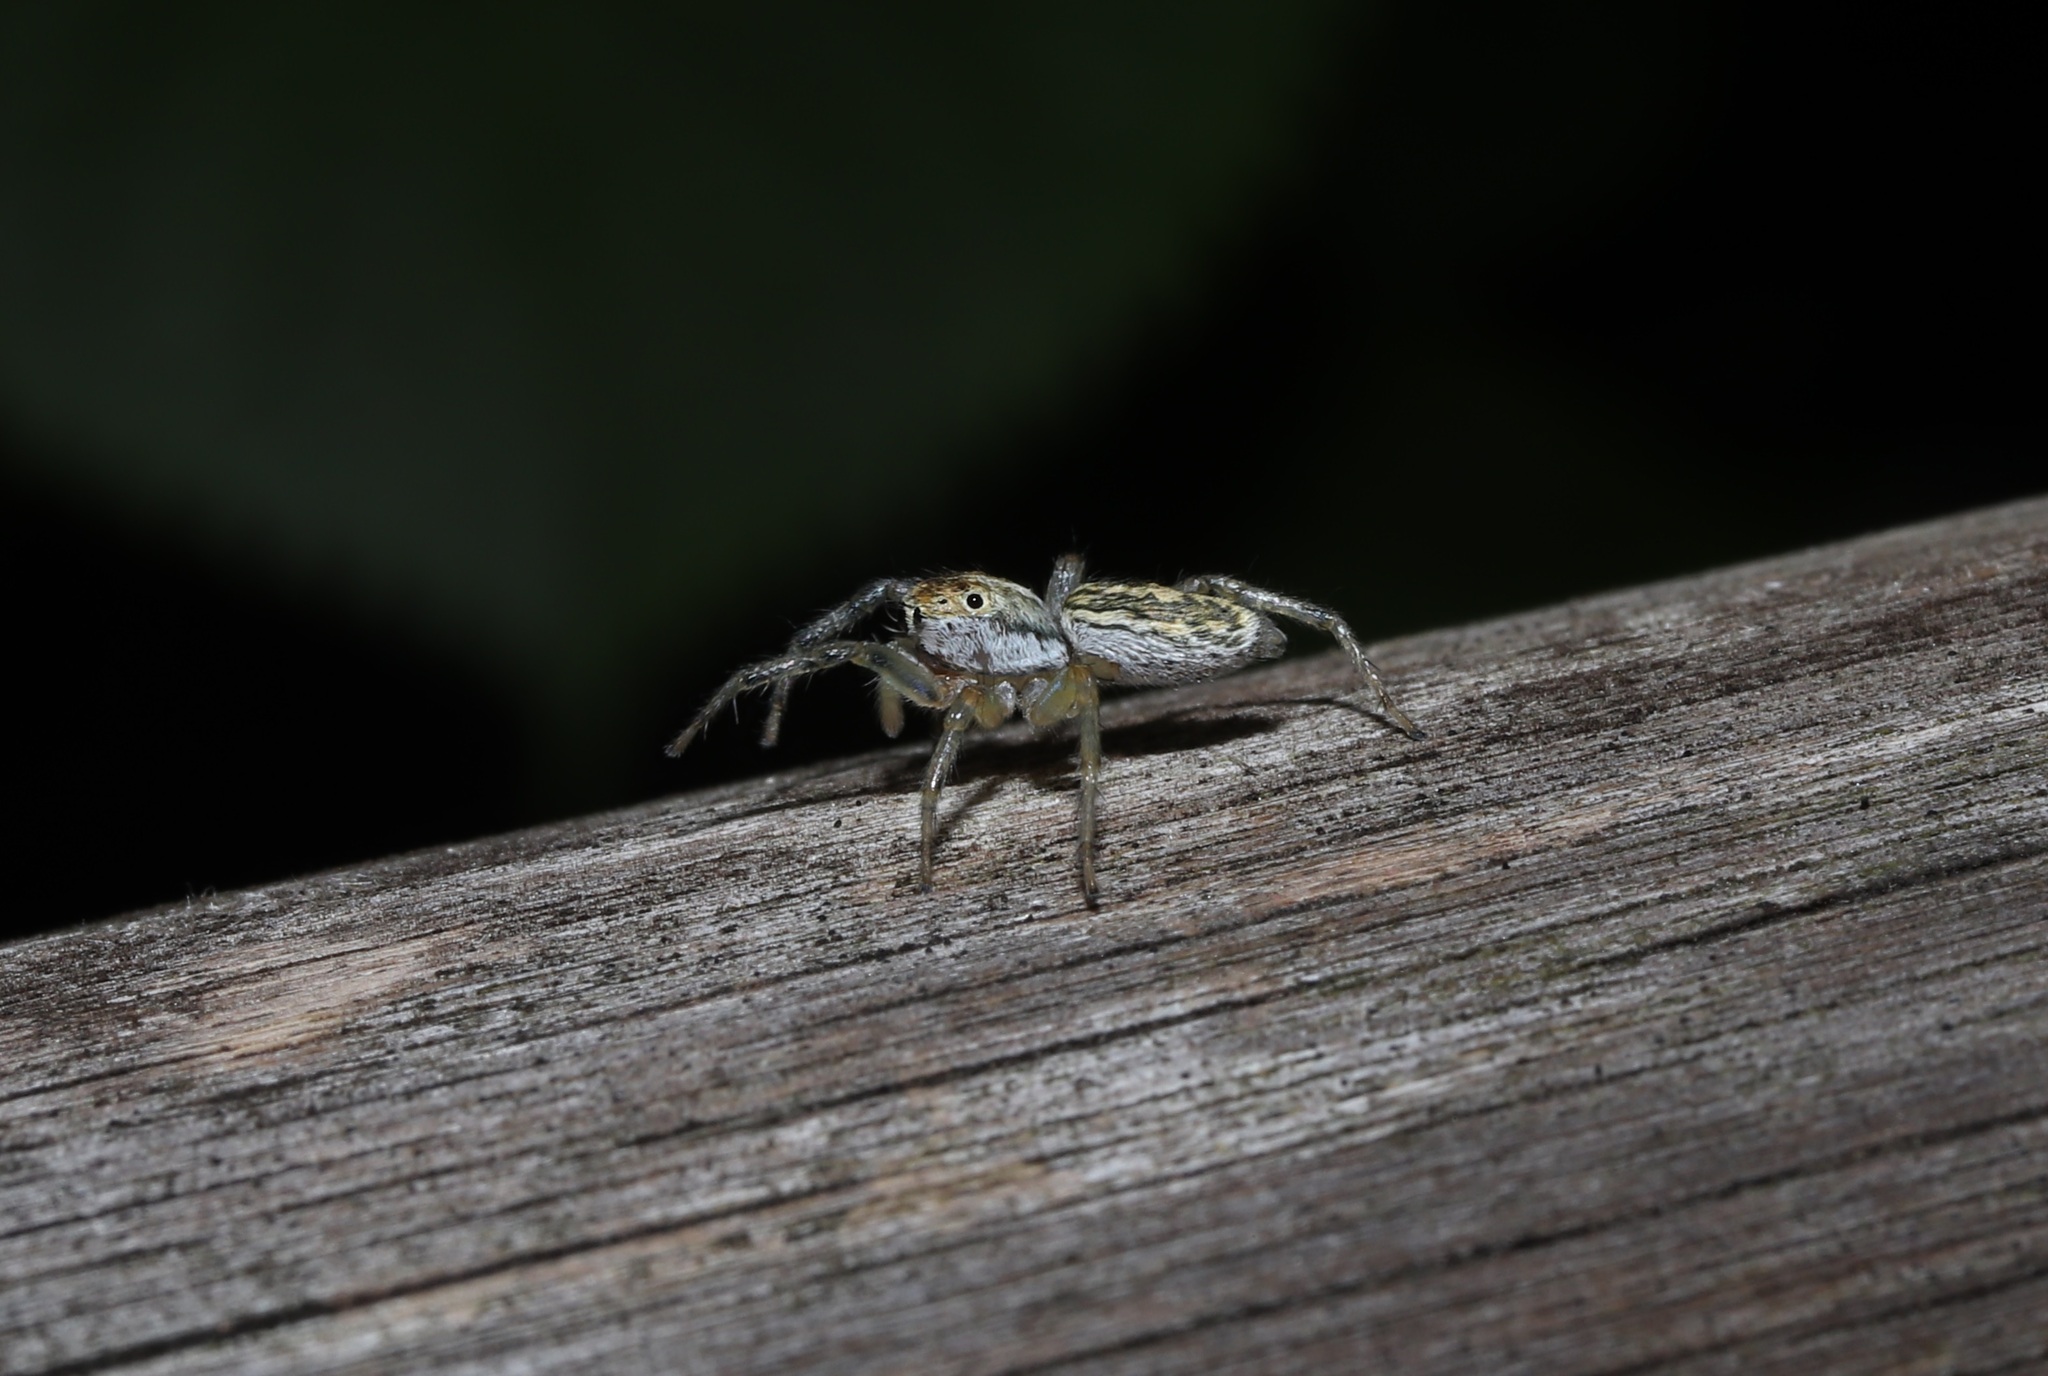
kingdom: Animalia
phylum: Arthropoda
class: Arachnida
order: Araneae
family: Salticidae
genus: Phintella
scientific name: Phintella abnormis
